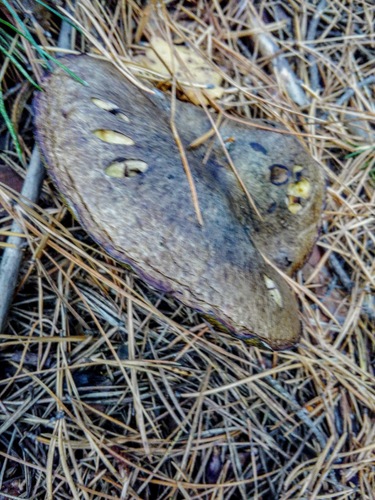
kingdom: Fungi
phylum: Basidiomycota
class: Agaricomycetes
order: Boletales
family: Suillaceae
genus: Suillus
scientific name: Suillus
